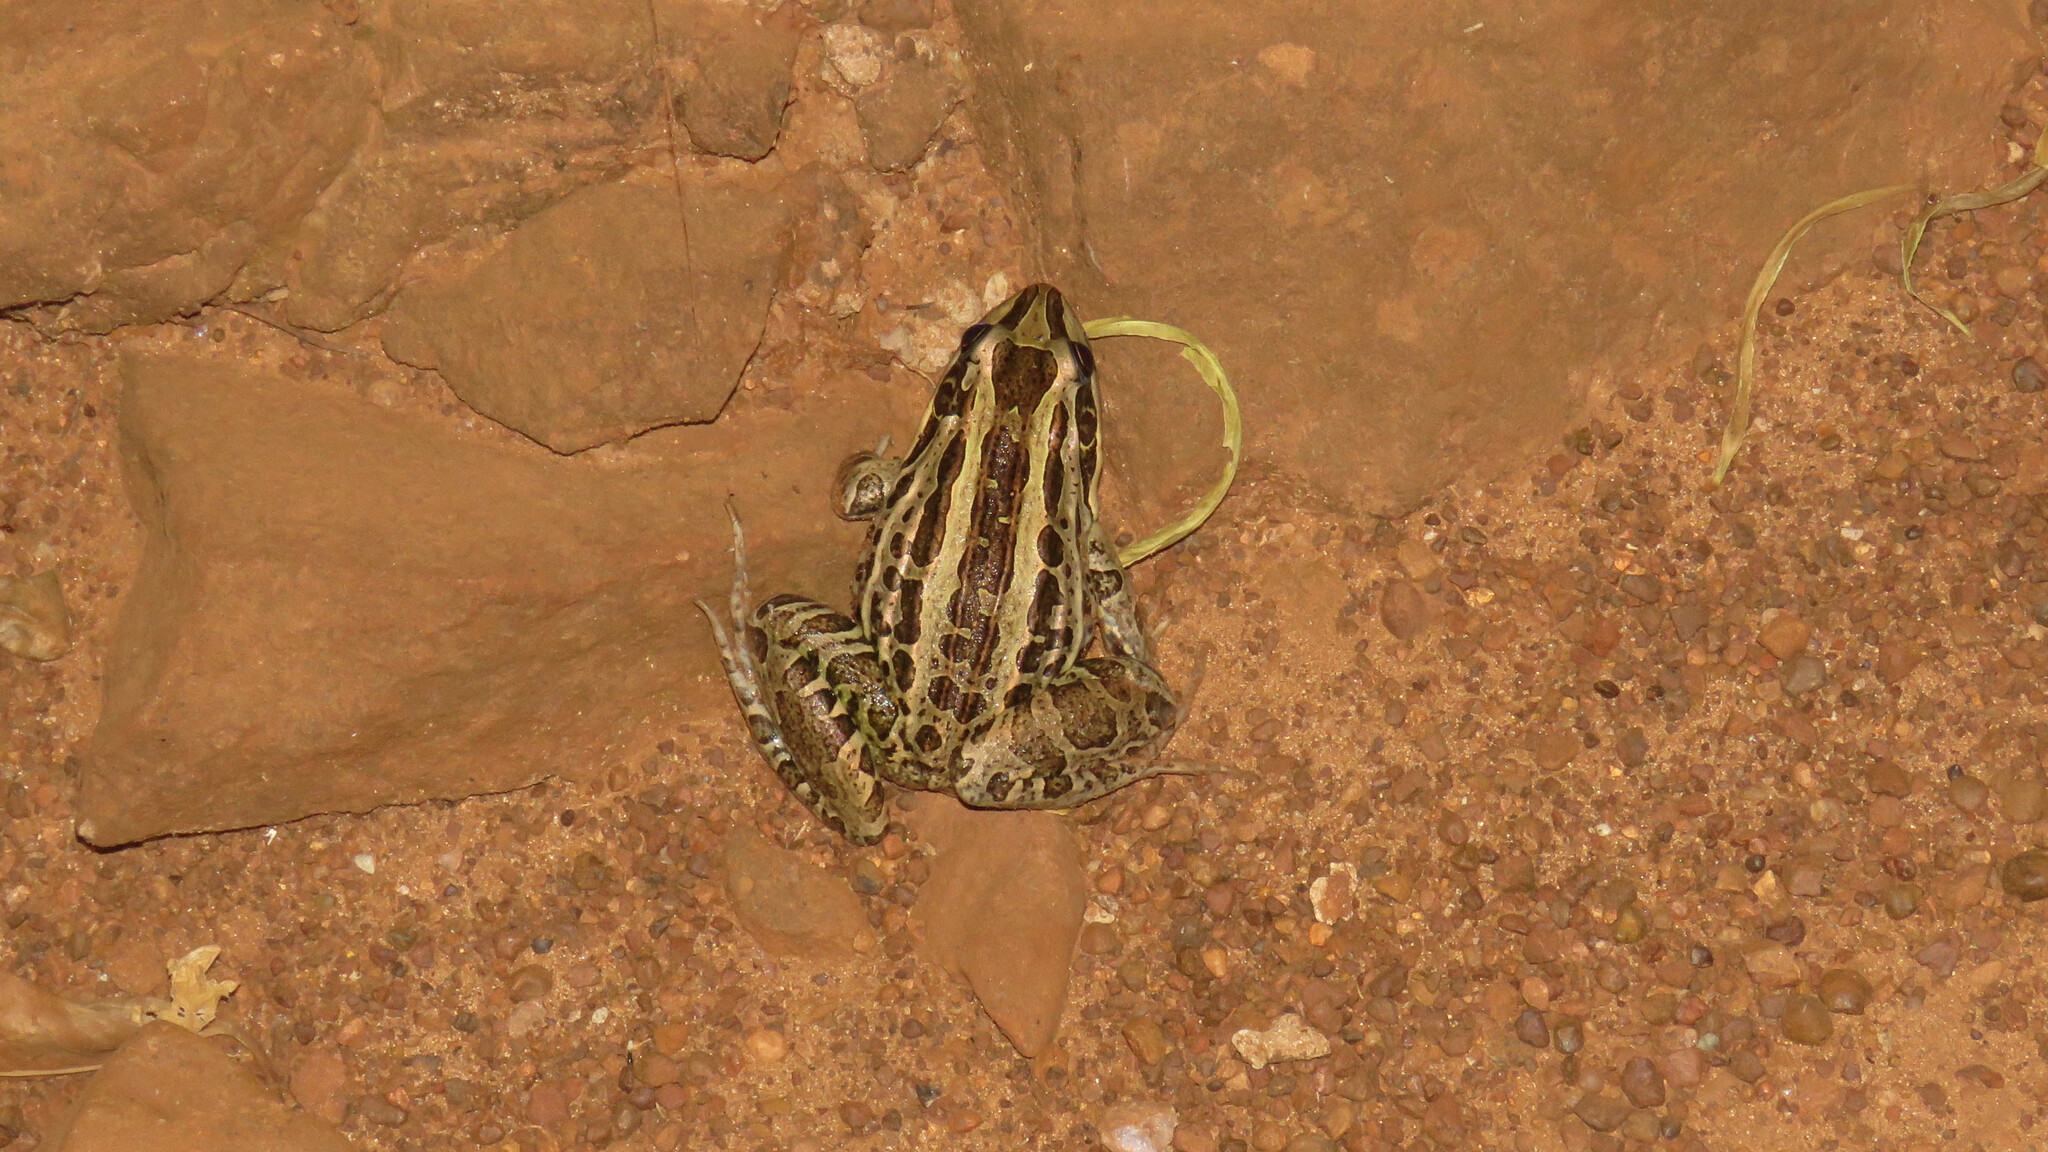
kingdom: Animalia
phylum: Chordata
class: Amphibia
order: Anura
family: Leptodactylidae
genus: Leptodactylus
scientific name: Leptodactylus luctator
